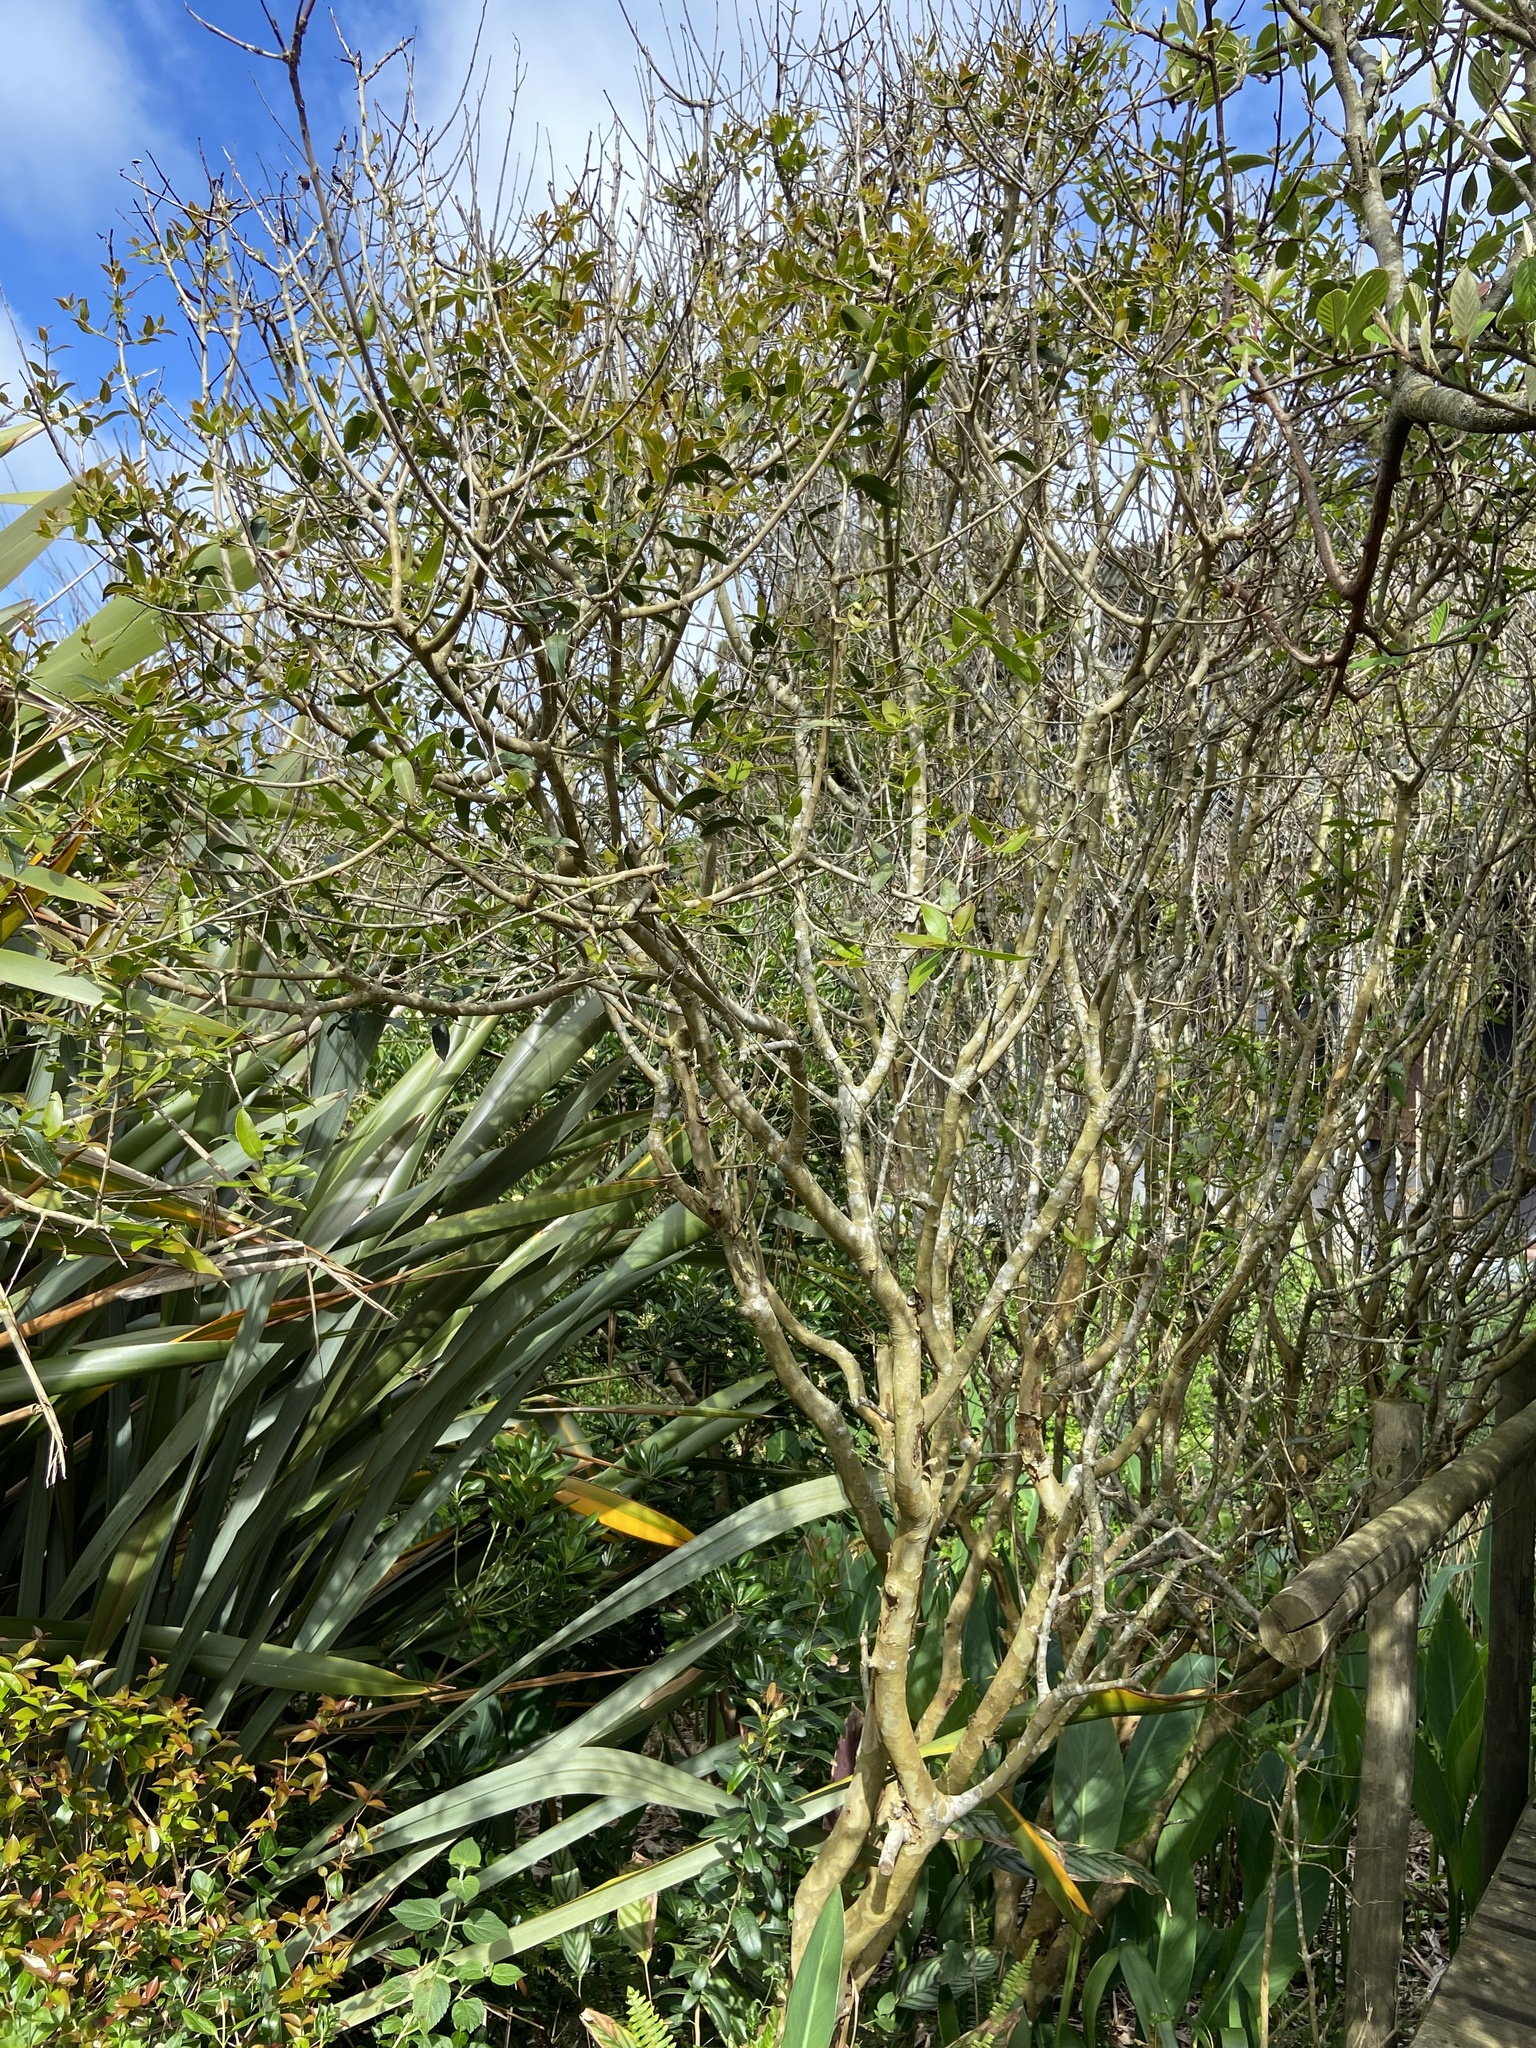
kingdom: Plantae
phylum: Tracheophyta
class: Magnoliopsida
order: Myrtales
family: Myrtaceae
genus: Myrcianthes
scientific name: Myrcianthes cisplatensis
